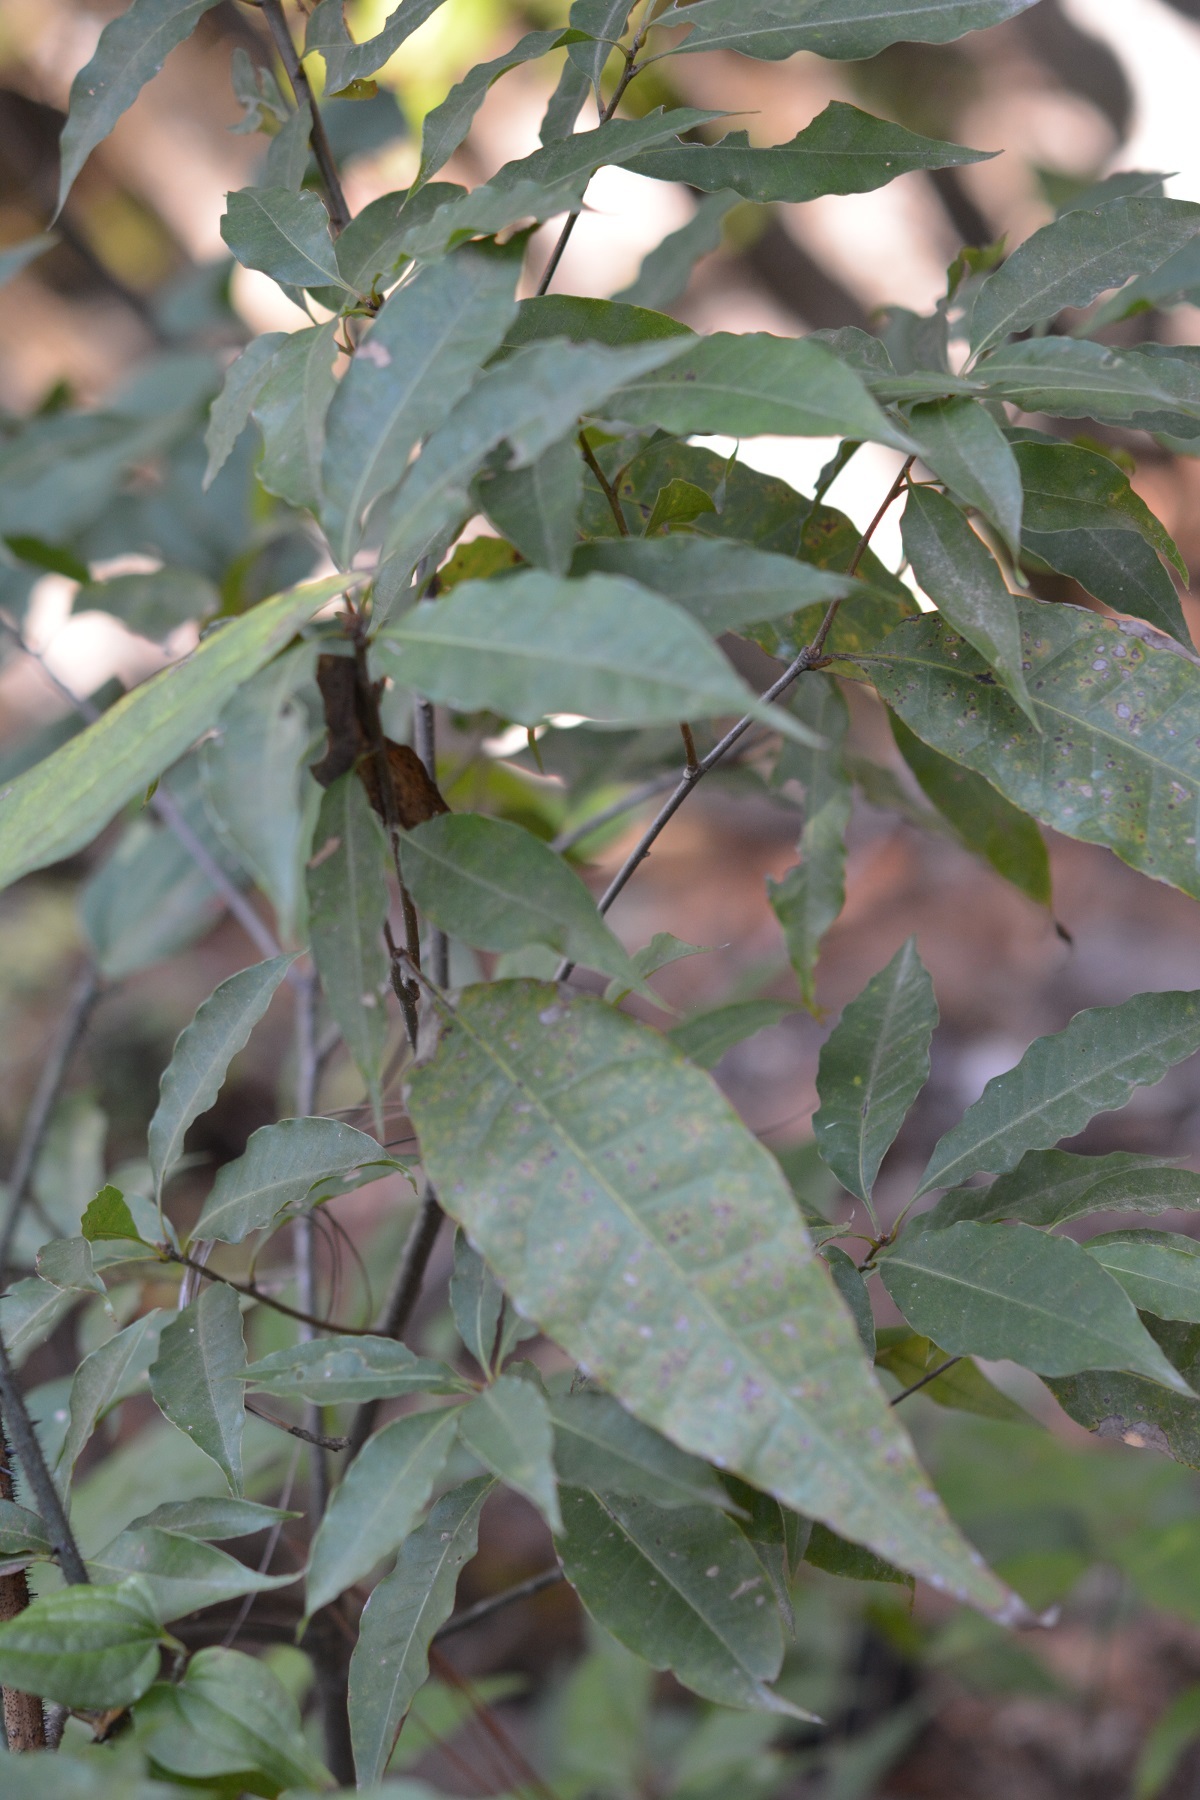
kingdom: Plantae
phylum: Tracheophyta
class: Magnoliopsida
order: Fagales
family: Fagaceae
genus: Quercus
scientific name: Quercus seemannii
